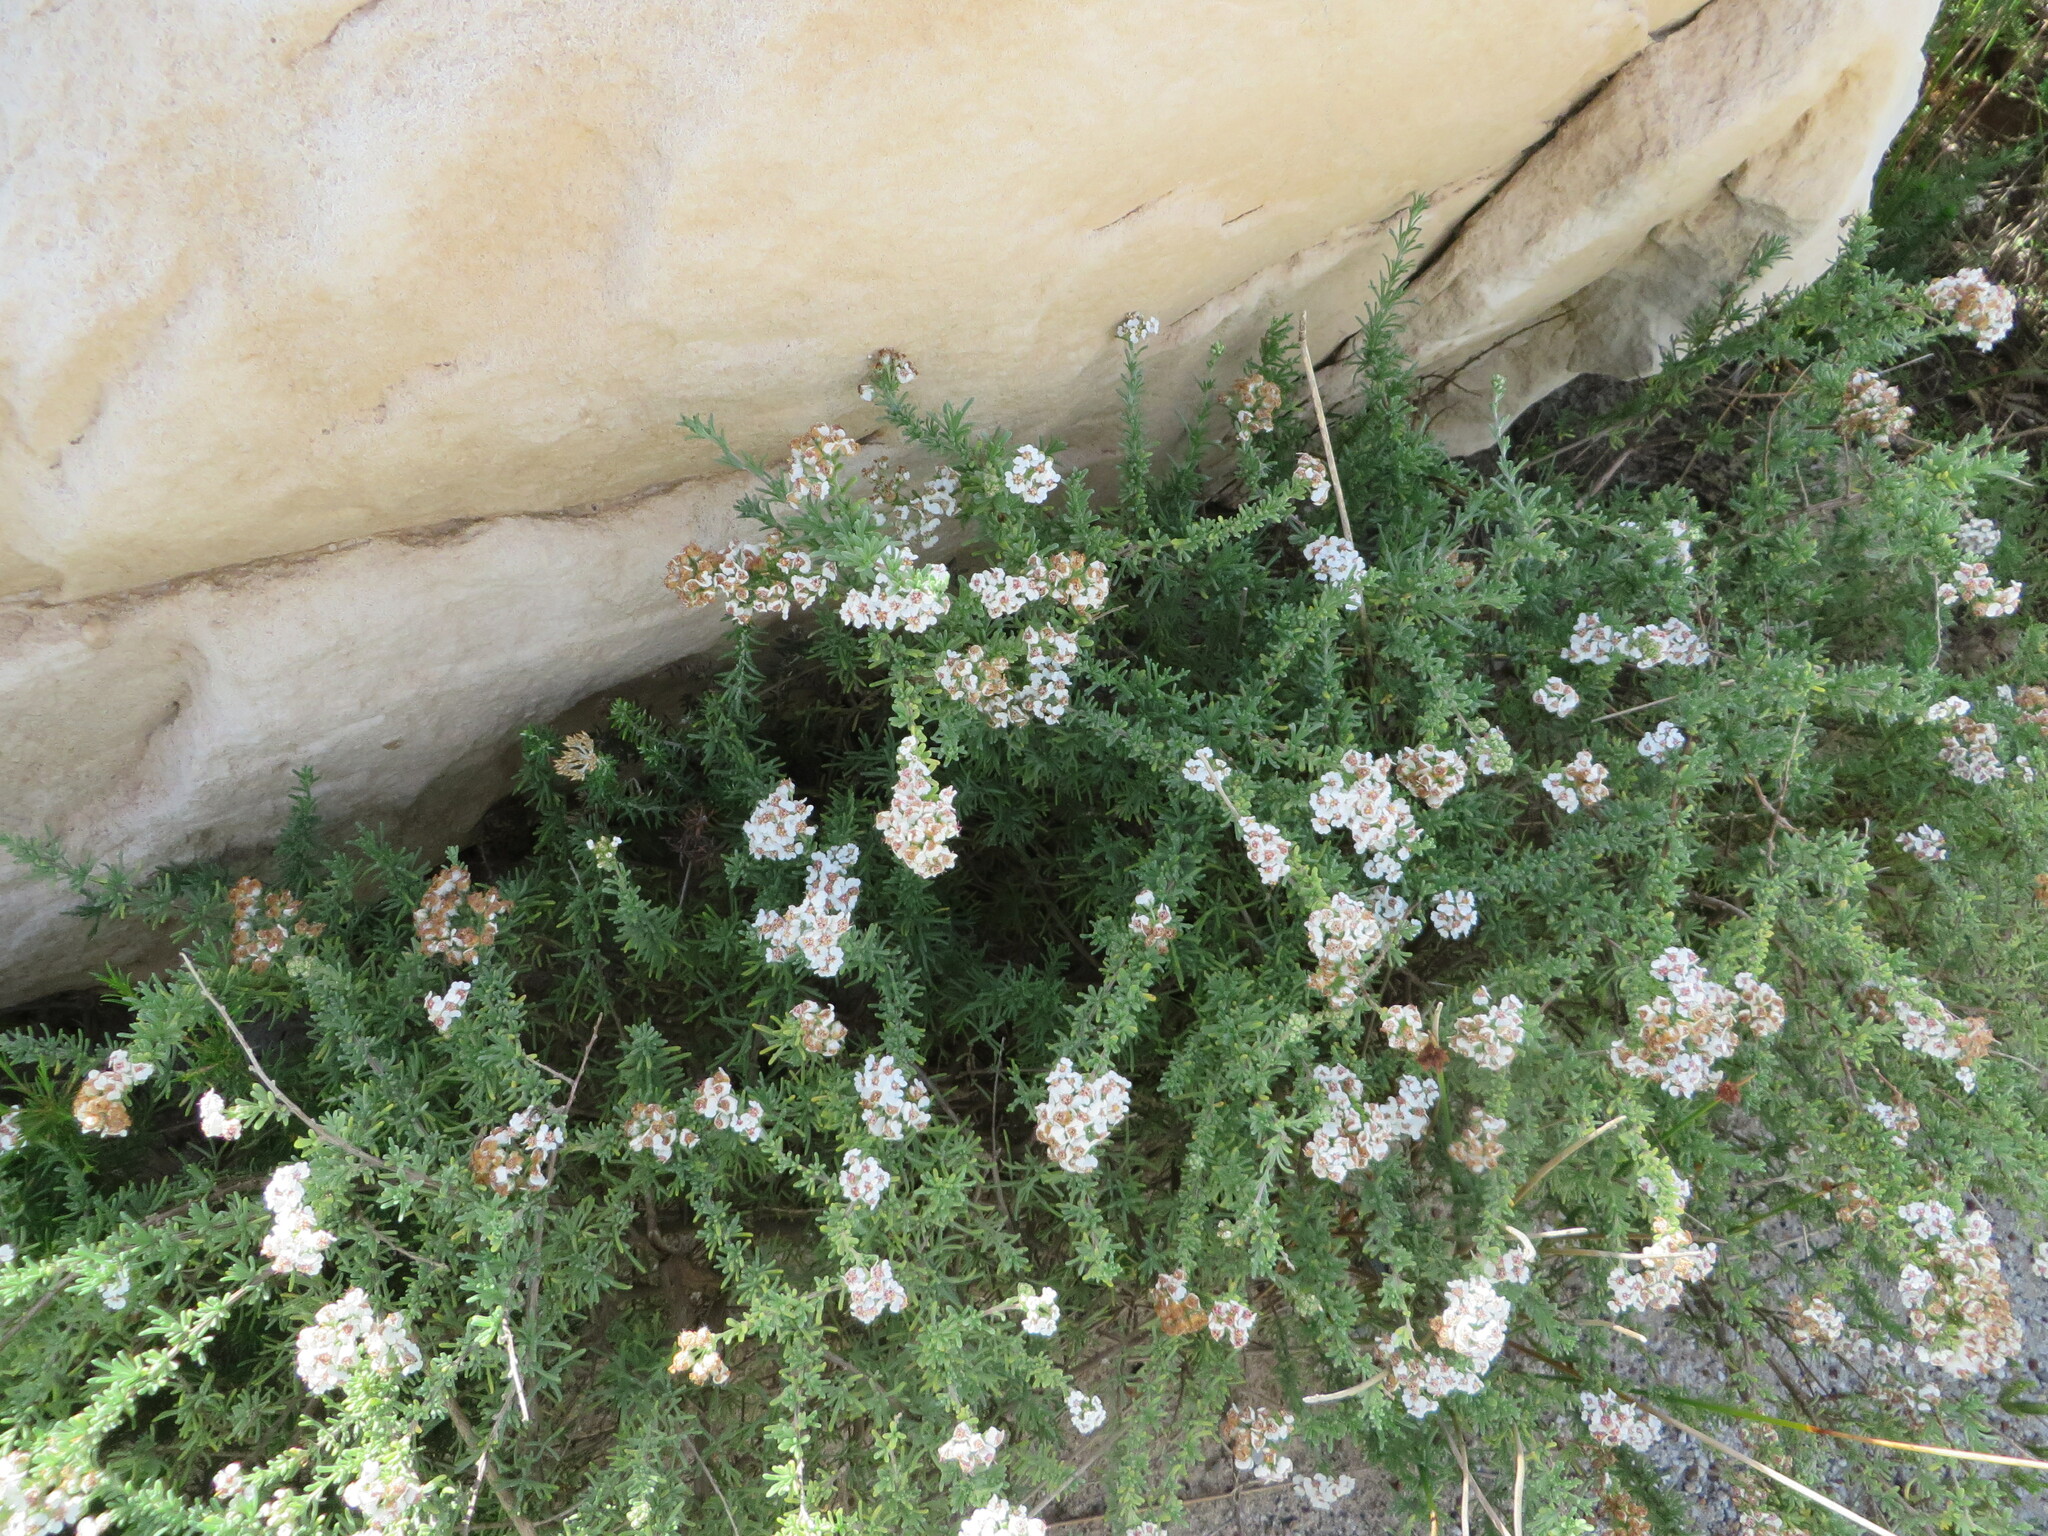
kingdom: Plantae
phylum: Tracheophyta
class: Magnoliopsida
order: Asterales
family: Asteraceae
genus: Eriocephalus
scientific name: Eriocephalus africanus
